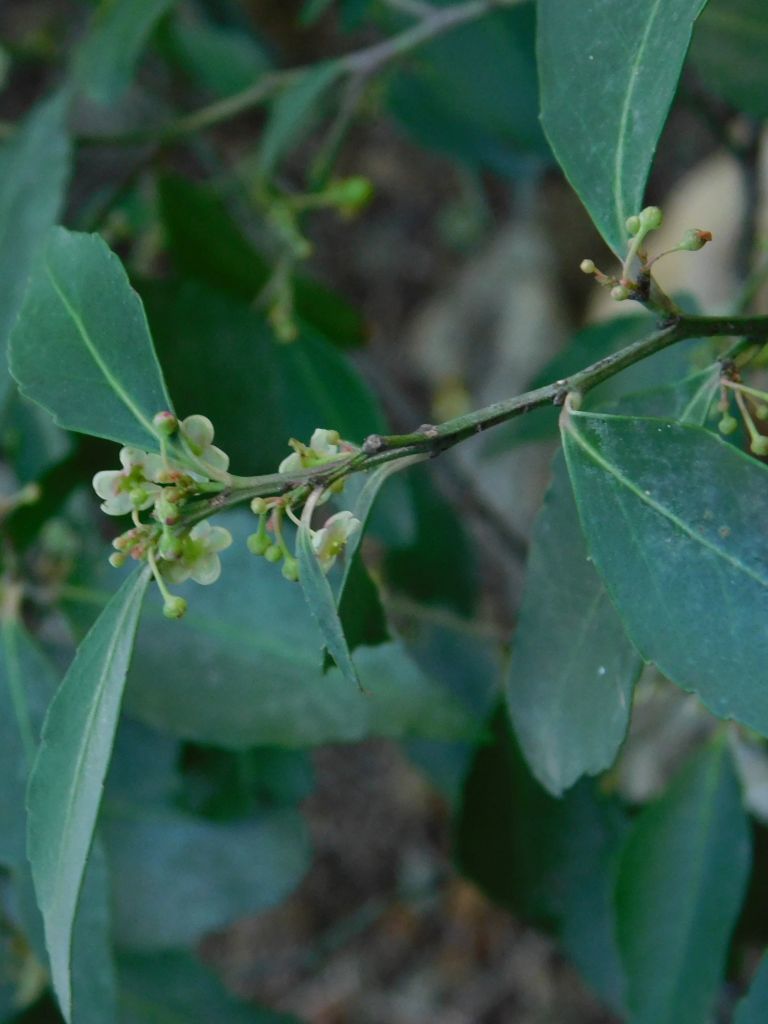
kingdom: Plantae
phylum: Tracheophyta
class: Magnoliopsida
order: Celastrales
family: Celastraceae
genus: Gymnosporia
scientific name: Gymnosporia acuminata
